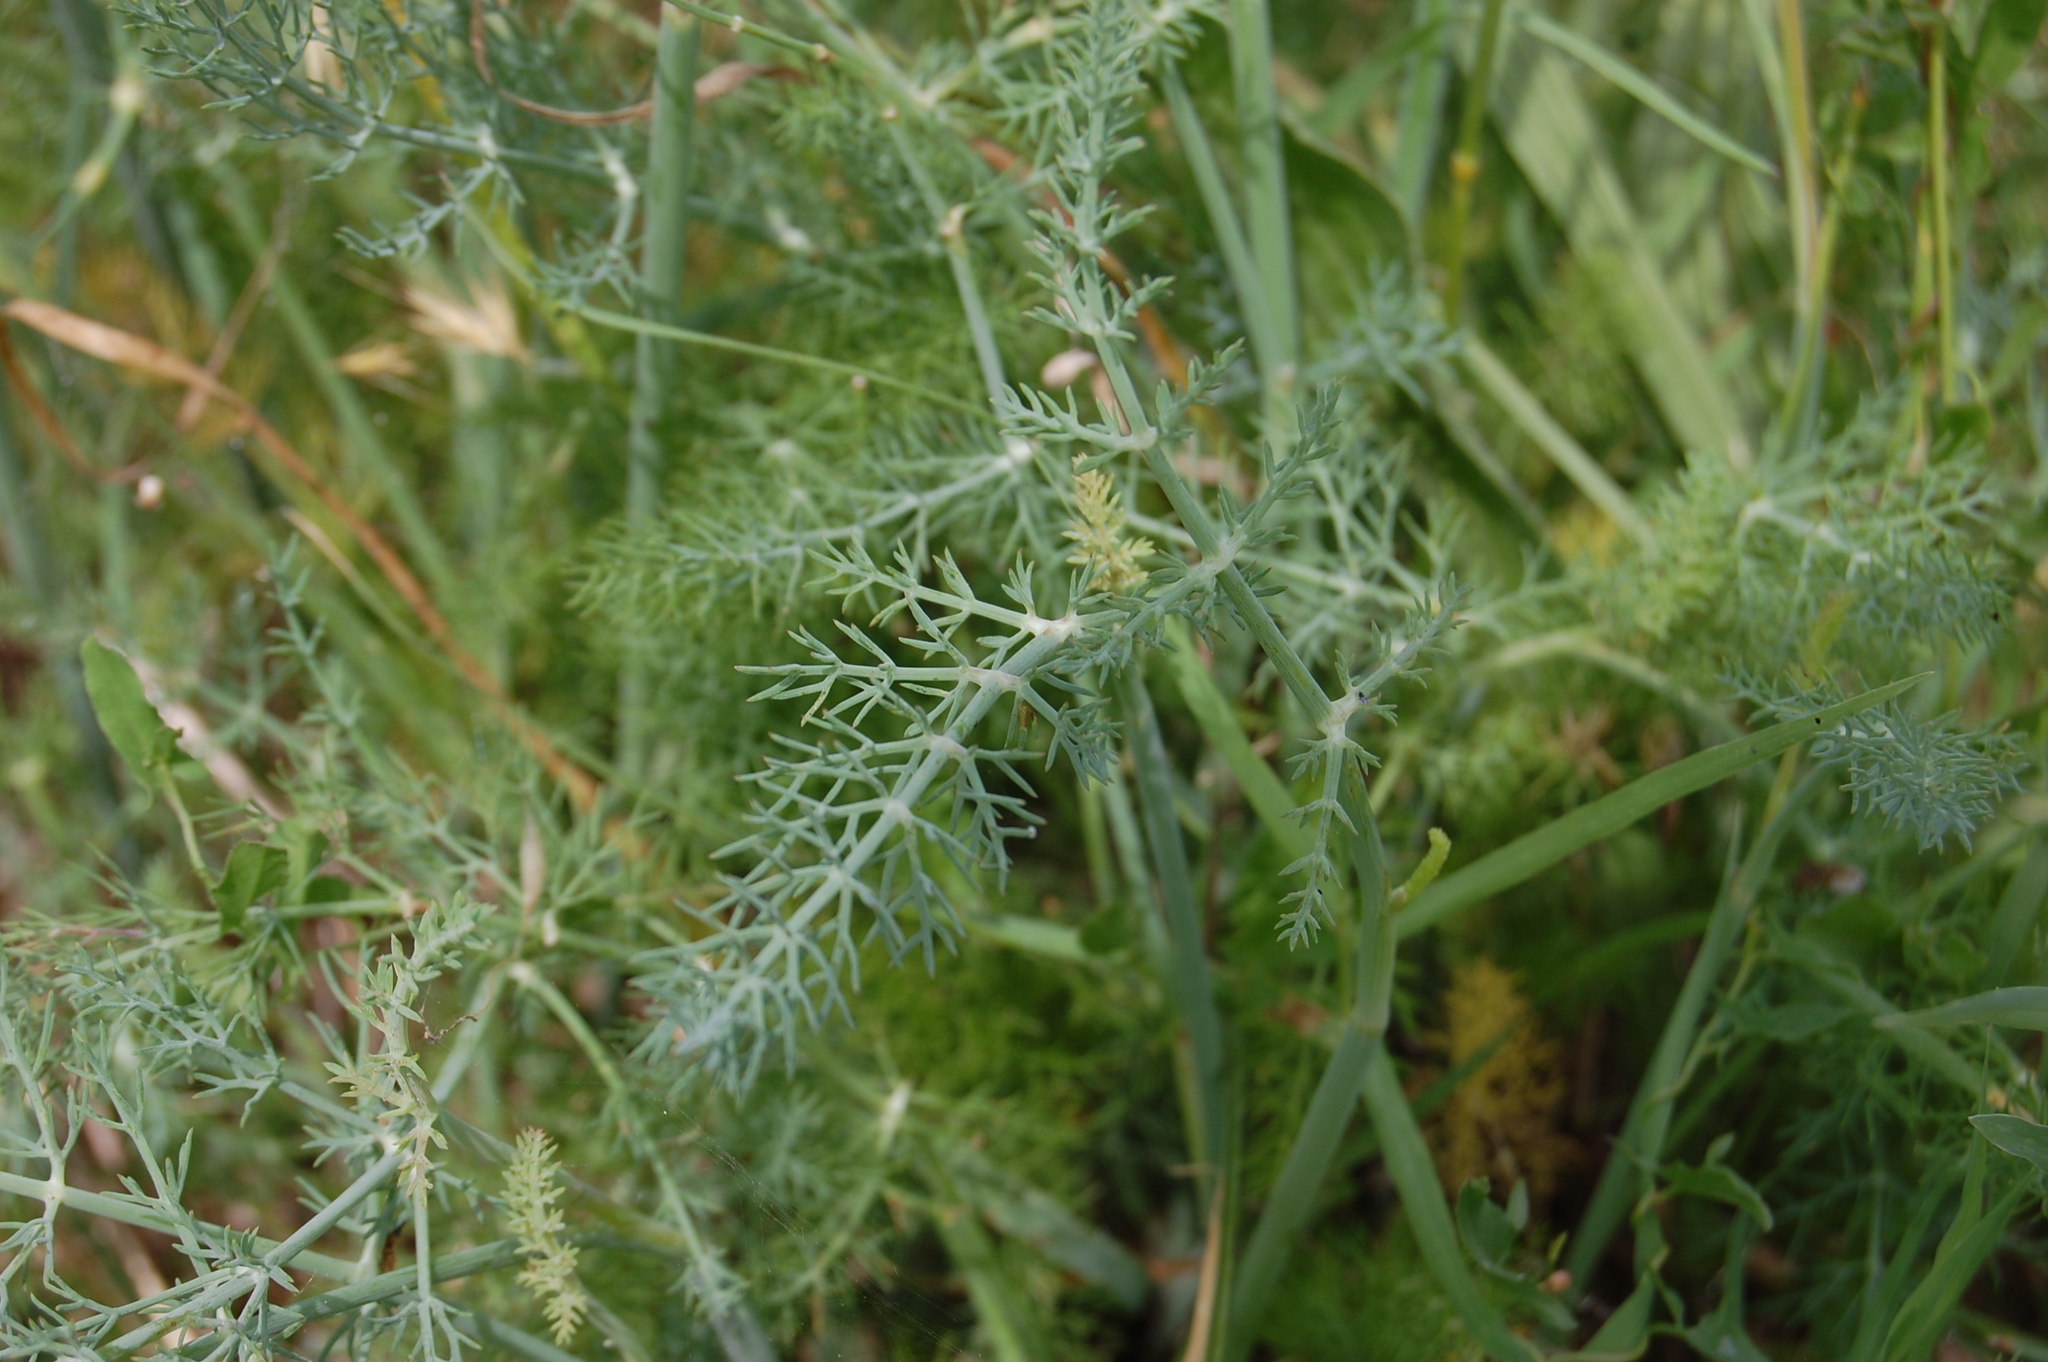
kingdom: Plantae
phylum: Tracheophyta
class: Magnoliopsida
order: Apiales
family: Apiaceae
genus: Foeniculum
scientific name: Foeniculum vulgare
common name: Fennel
